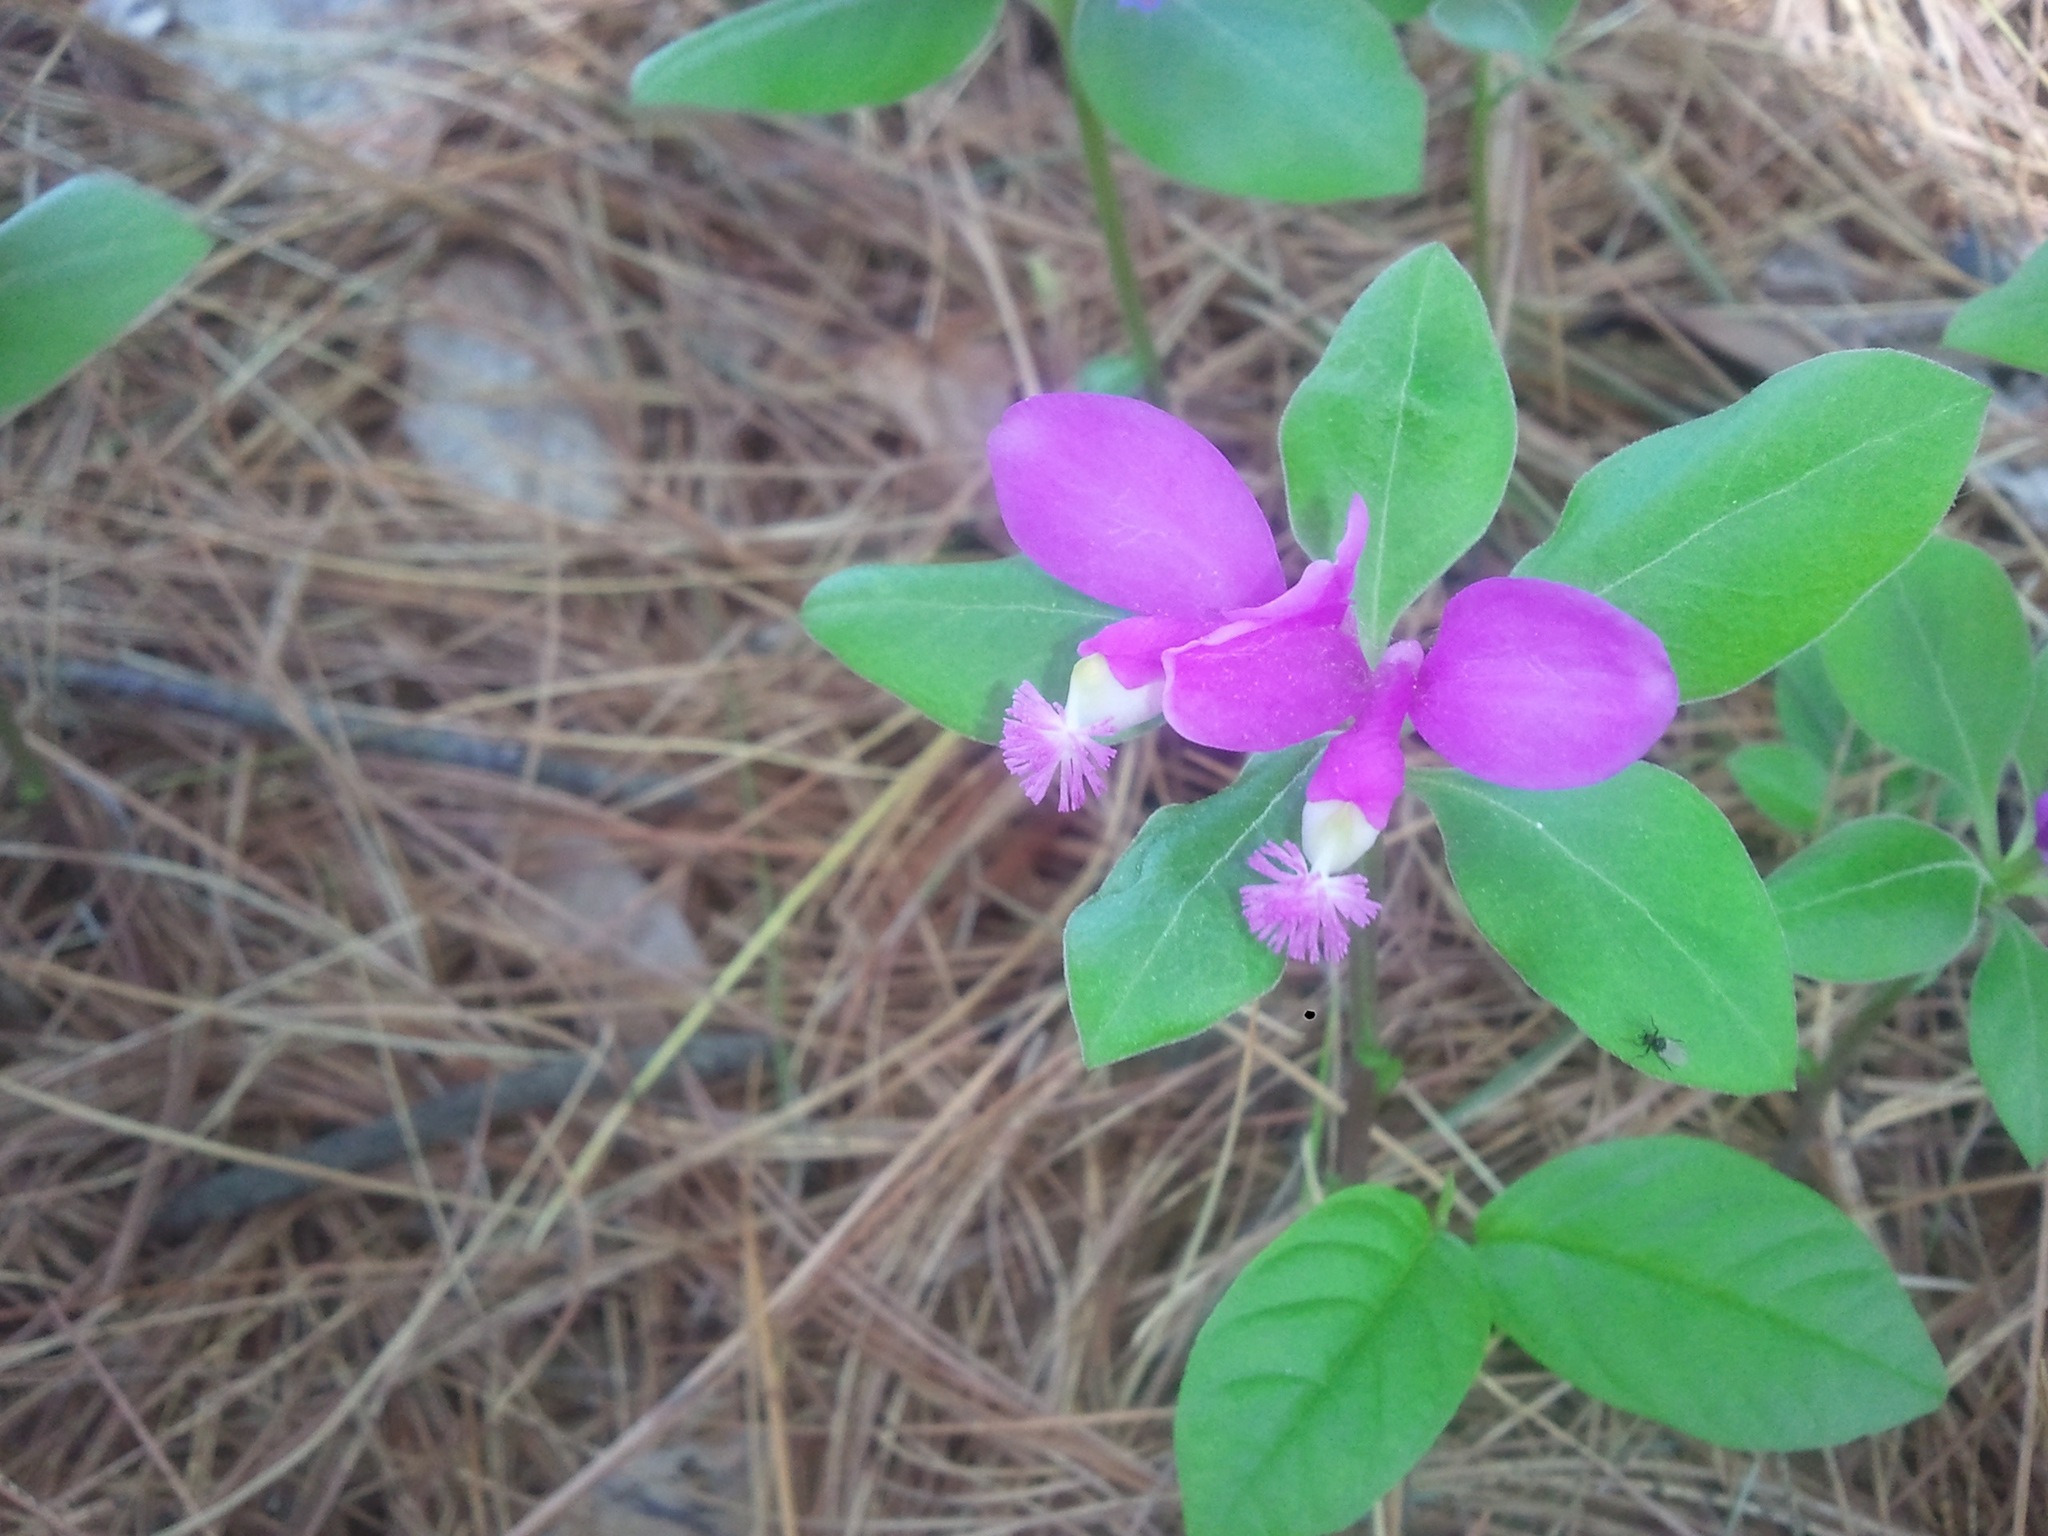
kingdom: Plantae
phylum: Tracheophyta
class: Magnoliopsida
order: Fabales
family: Polygalaceae
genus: Polygaloides
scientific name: Polygaloides paucifolia
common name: Bird-on-the-wing
